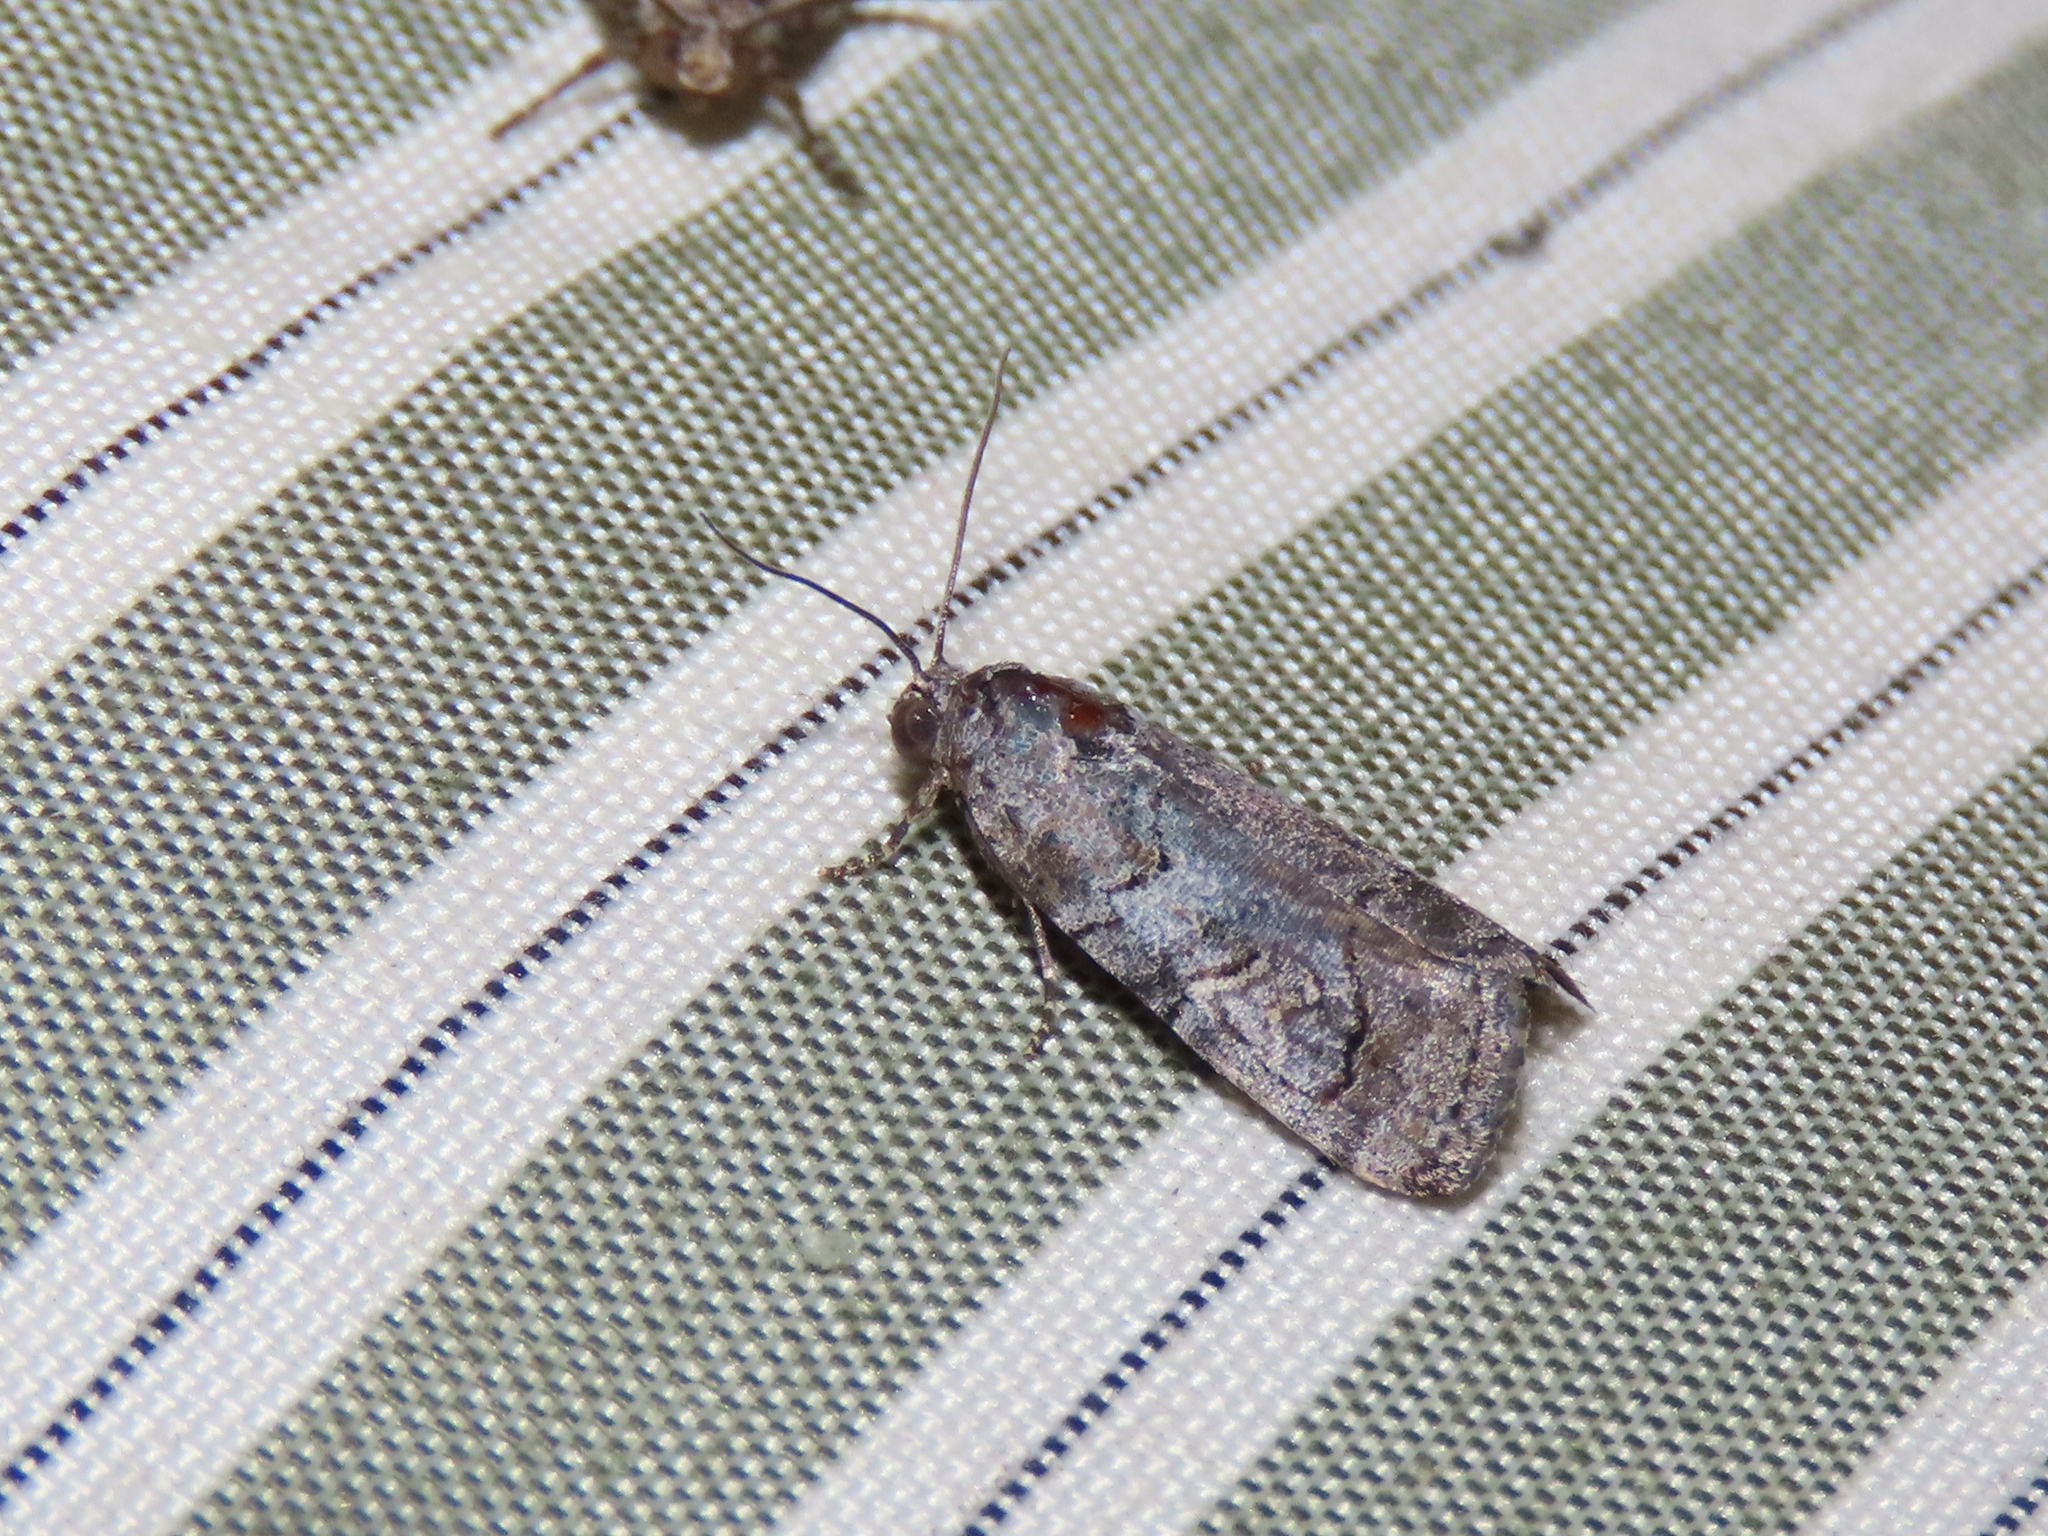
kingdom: Animalia
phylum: Arthropoda
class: Insecta
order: Lepidoptera
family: Noctuidae
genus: Metaponpneumata
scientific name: Metaponpneumata rogenhoferi
